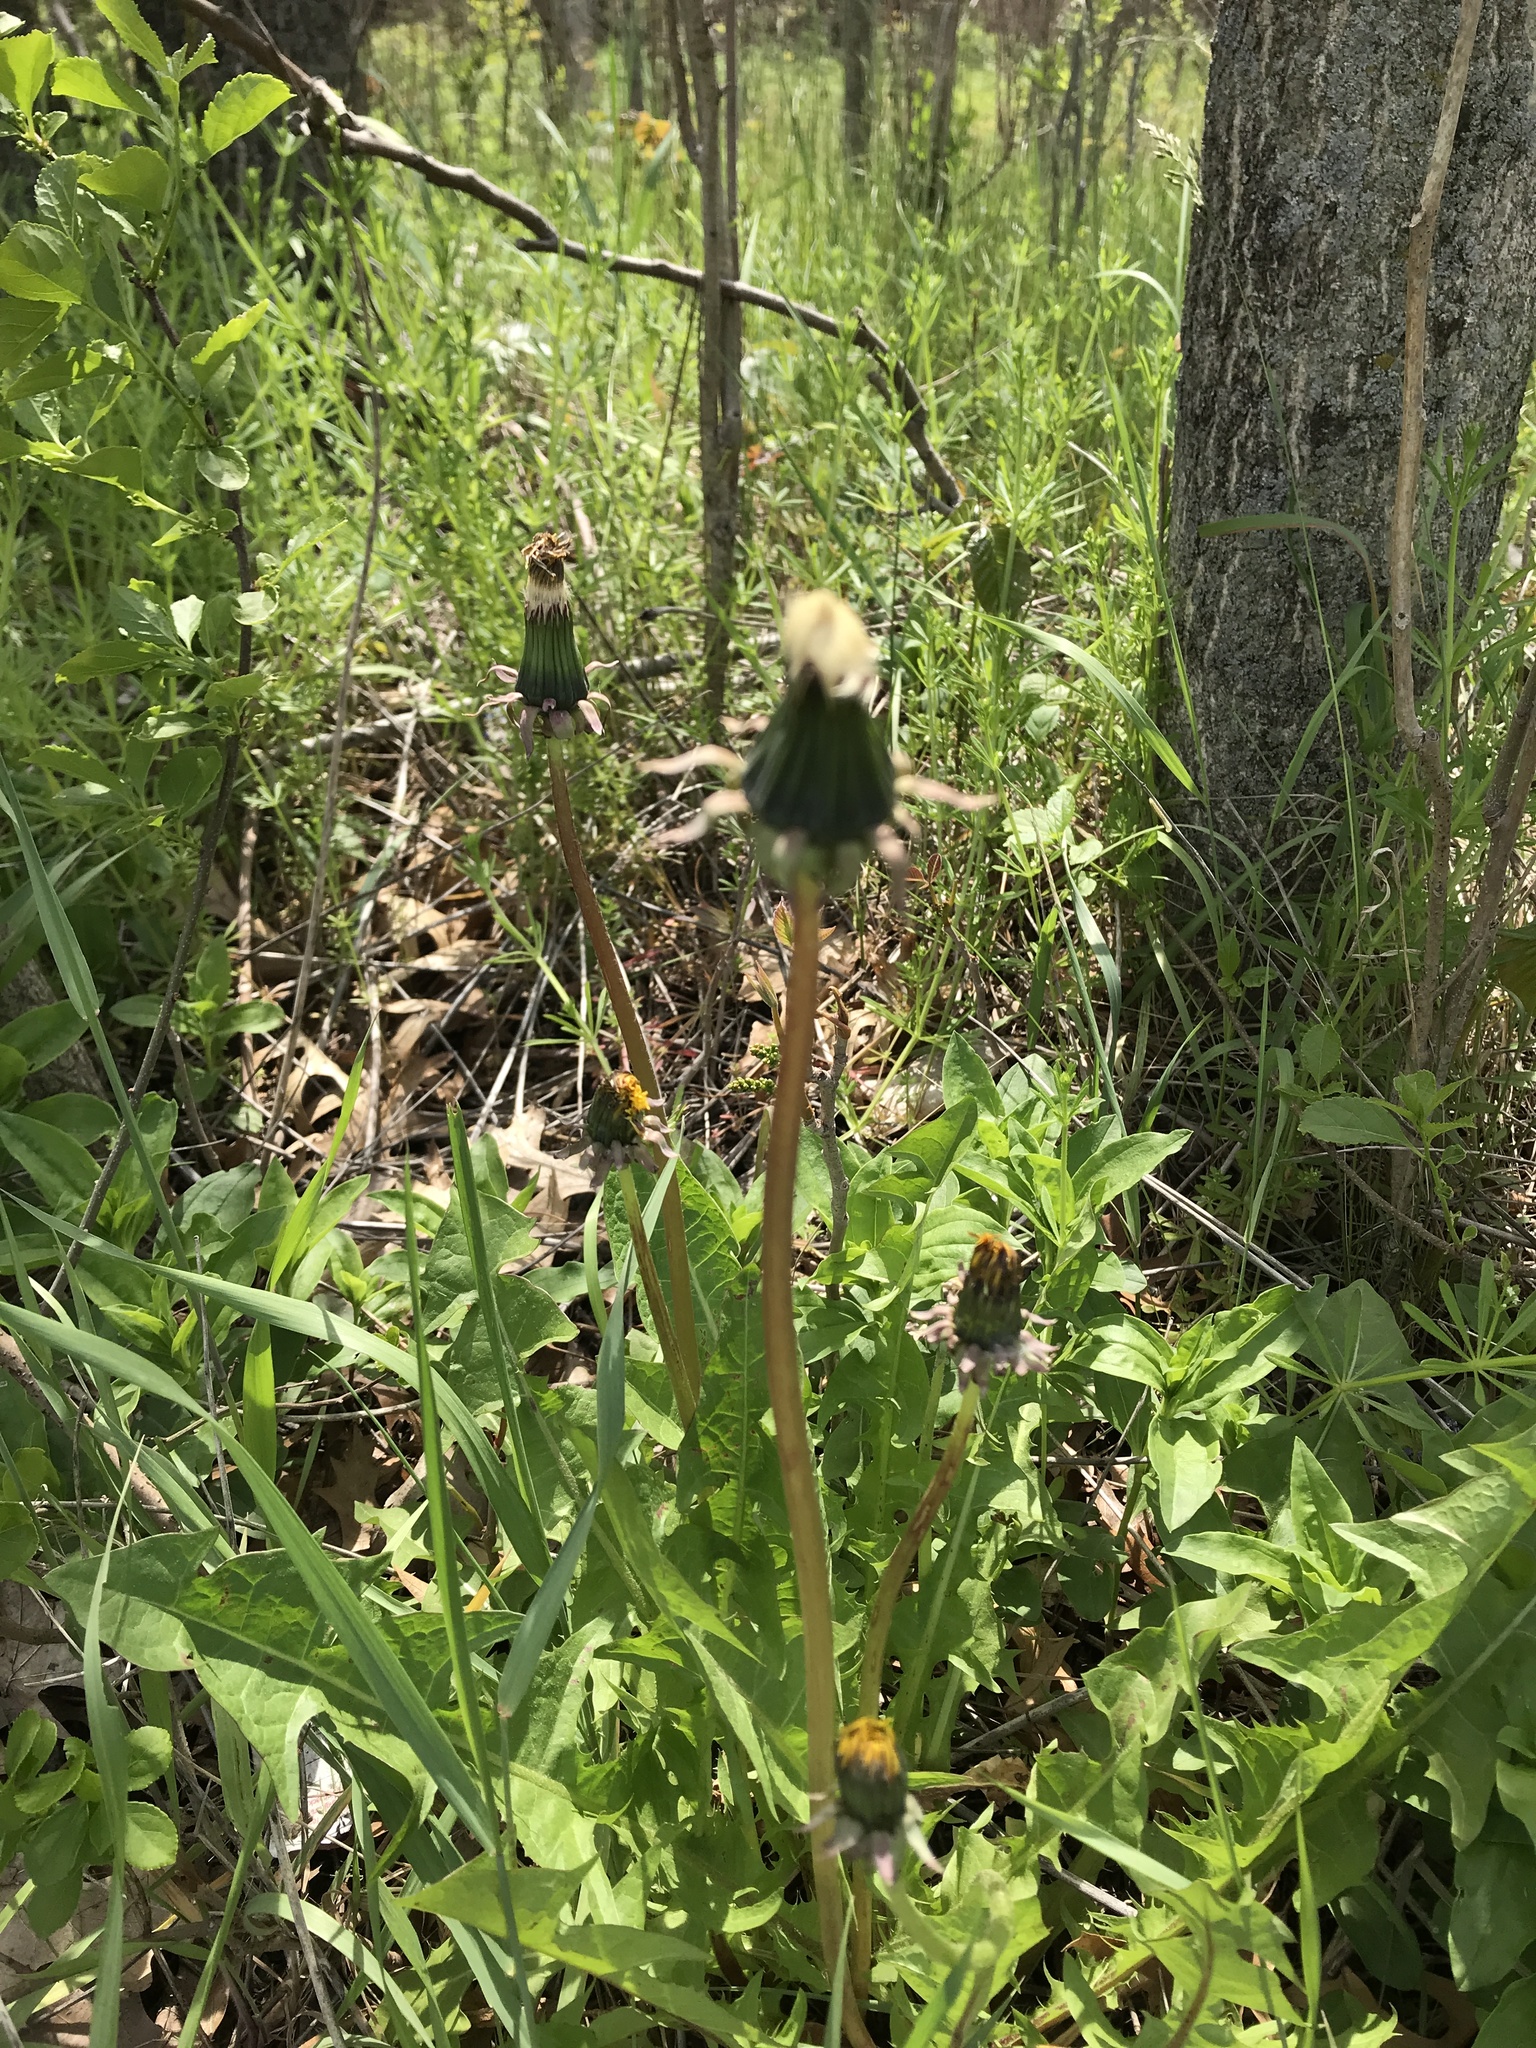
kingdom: Plantae
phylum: Tracheophyta
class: Magnoliopsida
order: Asterales
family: Asteraceae
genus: Taraxacum
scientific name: Taraxacum officinale
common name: Common dandelion
